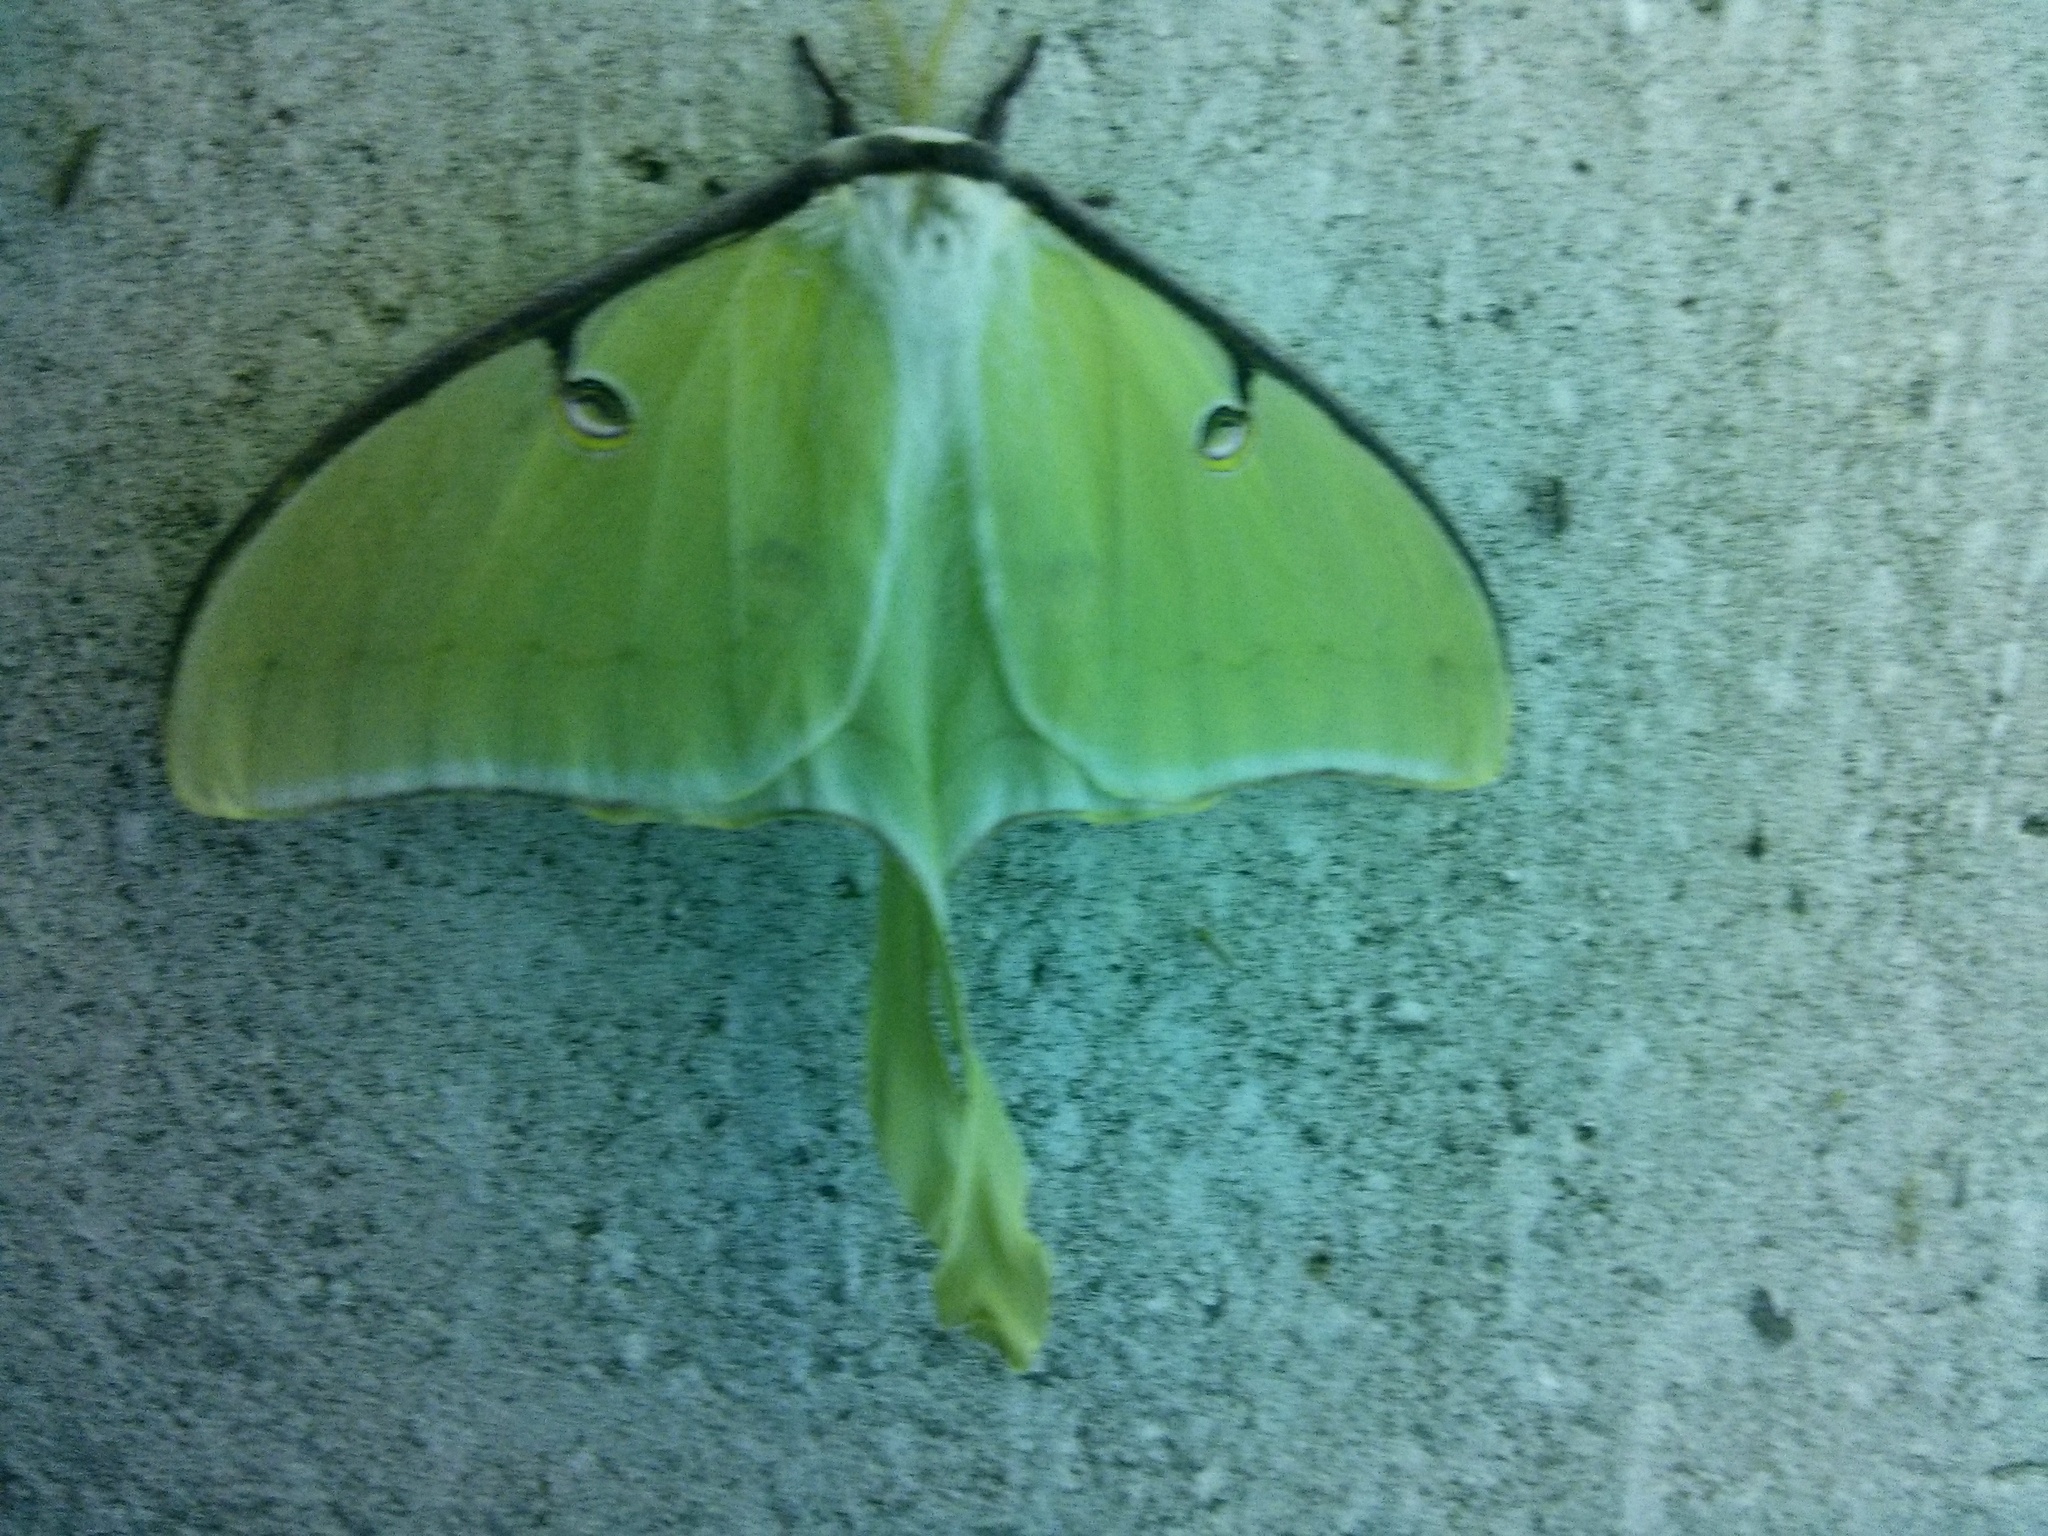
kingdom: Animalia
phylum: Arthropoda
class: Insecta
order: Lepidoptera
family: Saturniidae
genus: Actias
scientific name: Actias luna
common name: Luna moth
